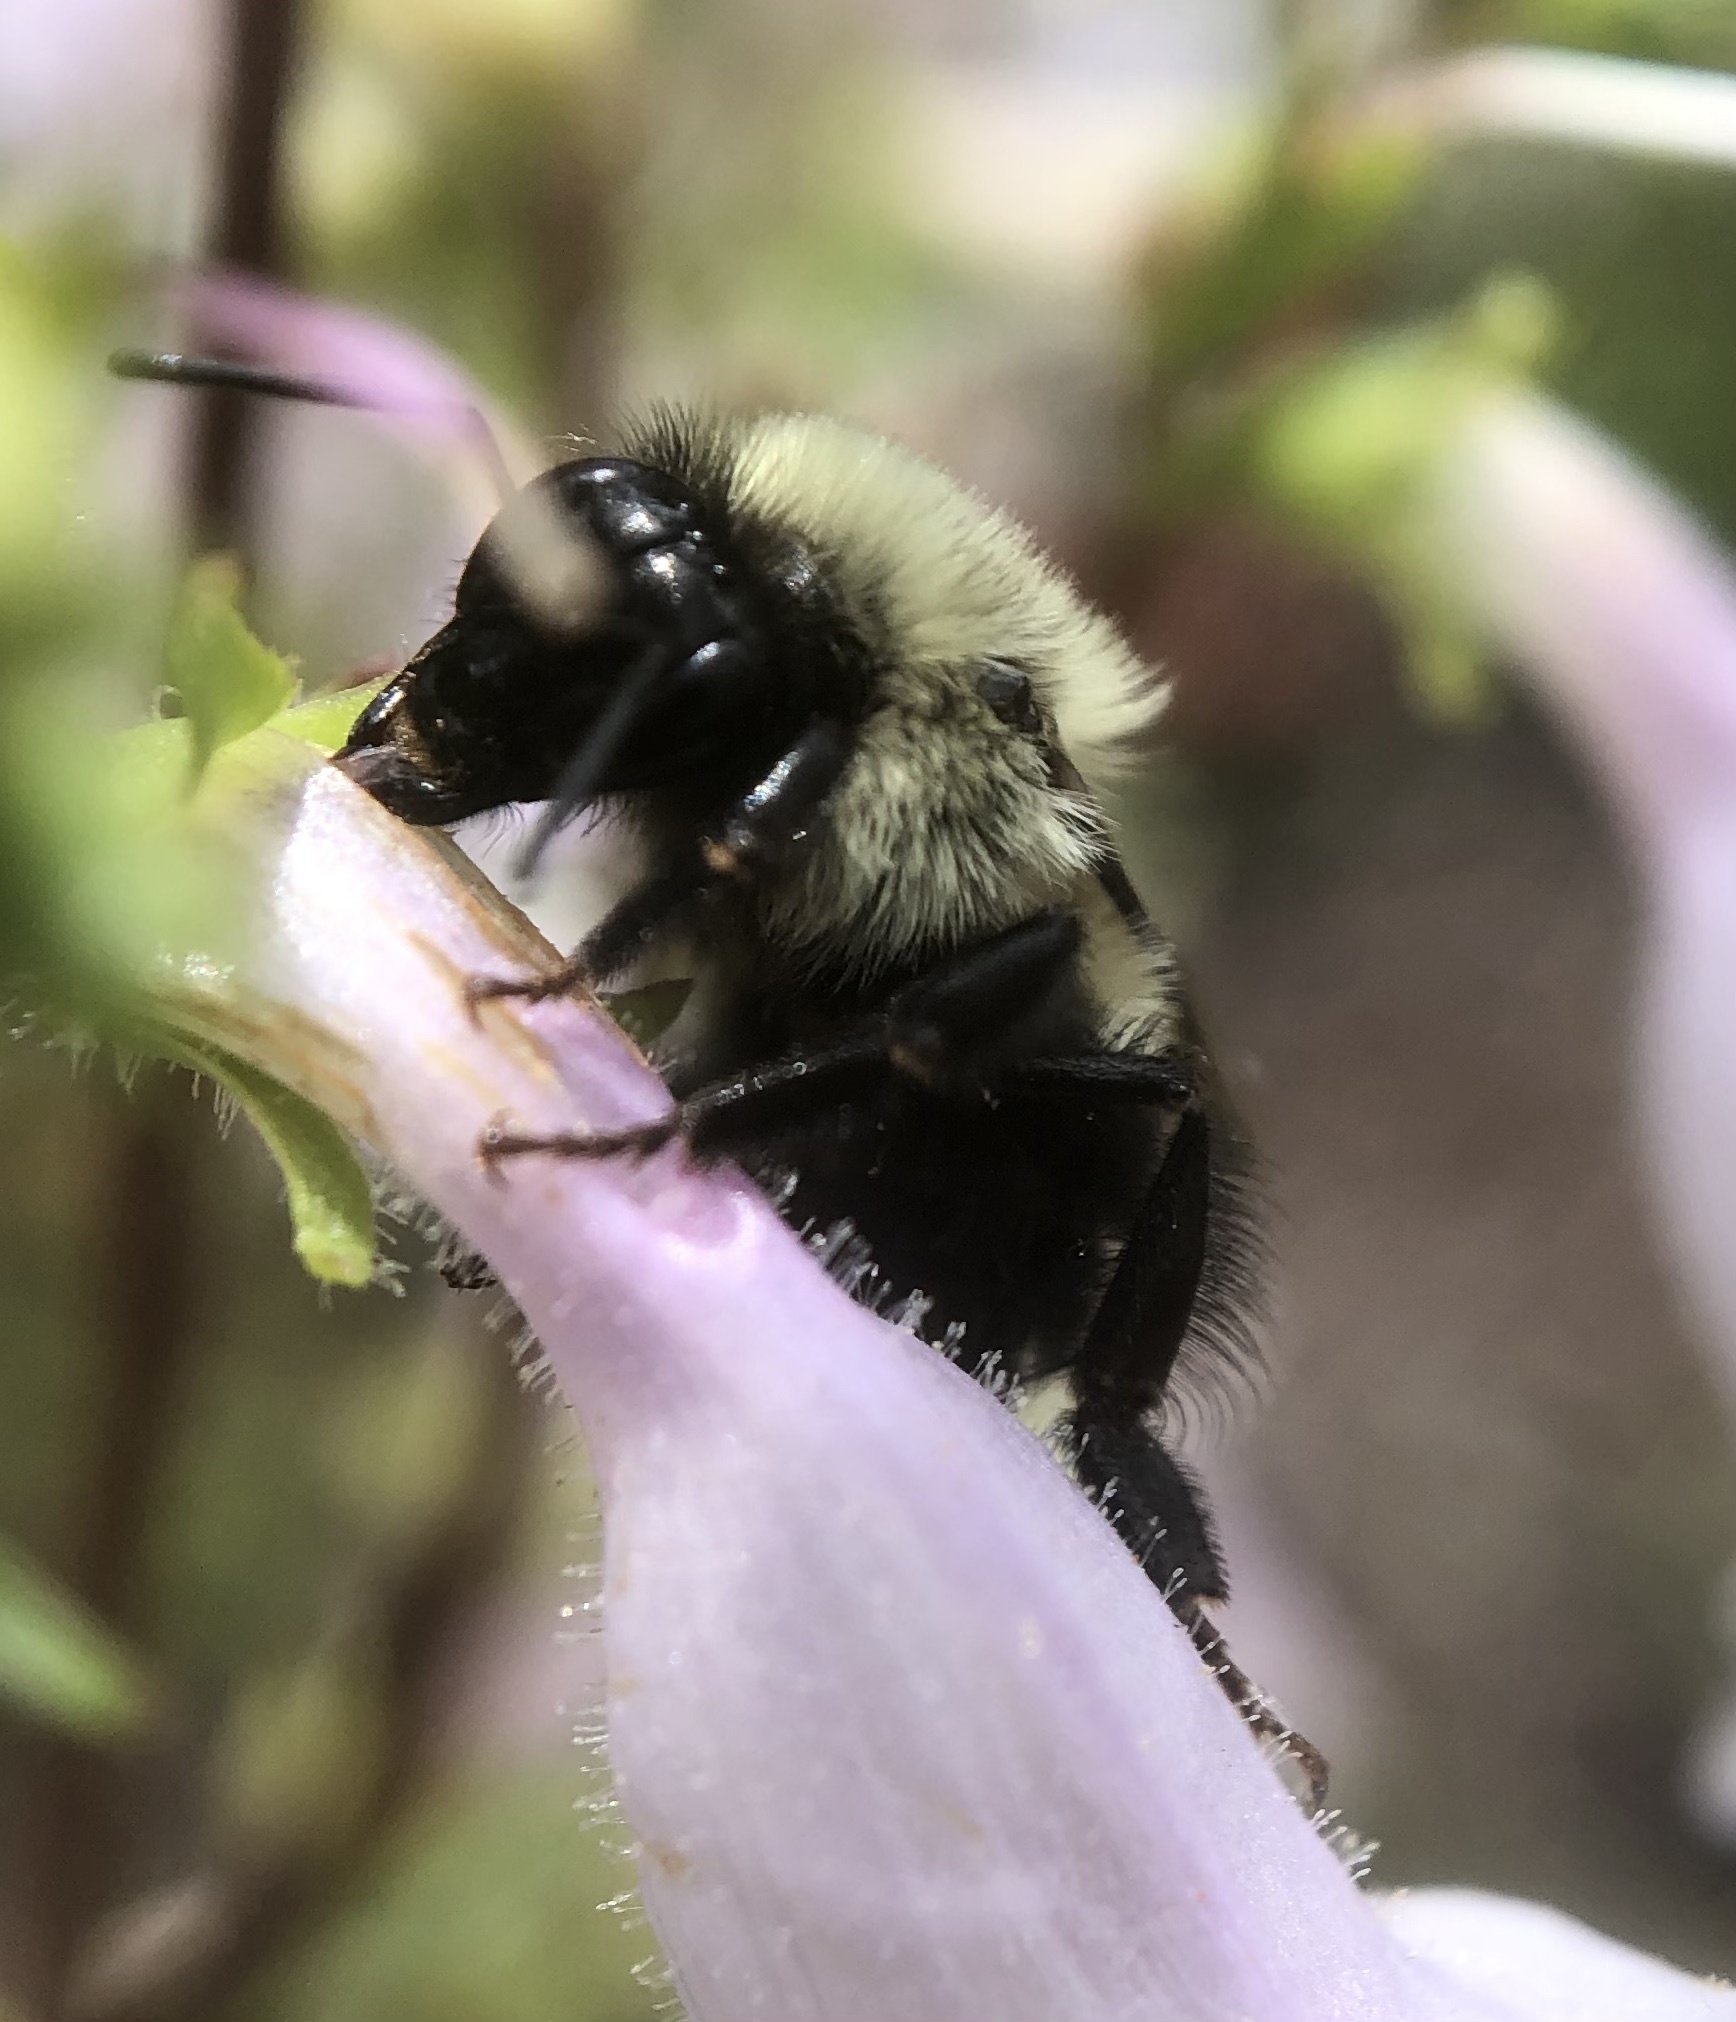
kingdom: Animalia
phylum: Arthropoda
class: Insecta
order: Hymenoptera
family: Apidae
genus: Bombus
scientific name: Bombus impatiens
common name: Common eastern bumble bee
